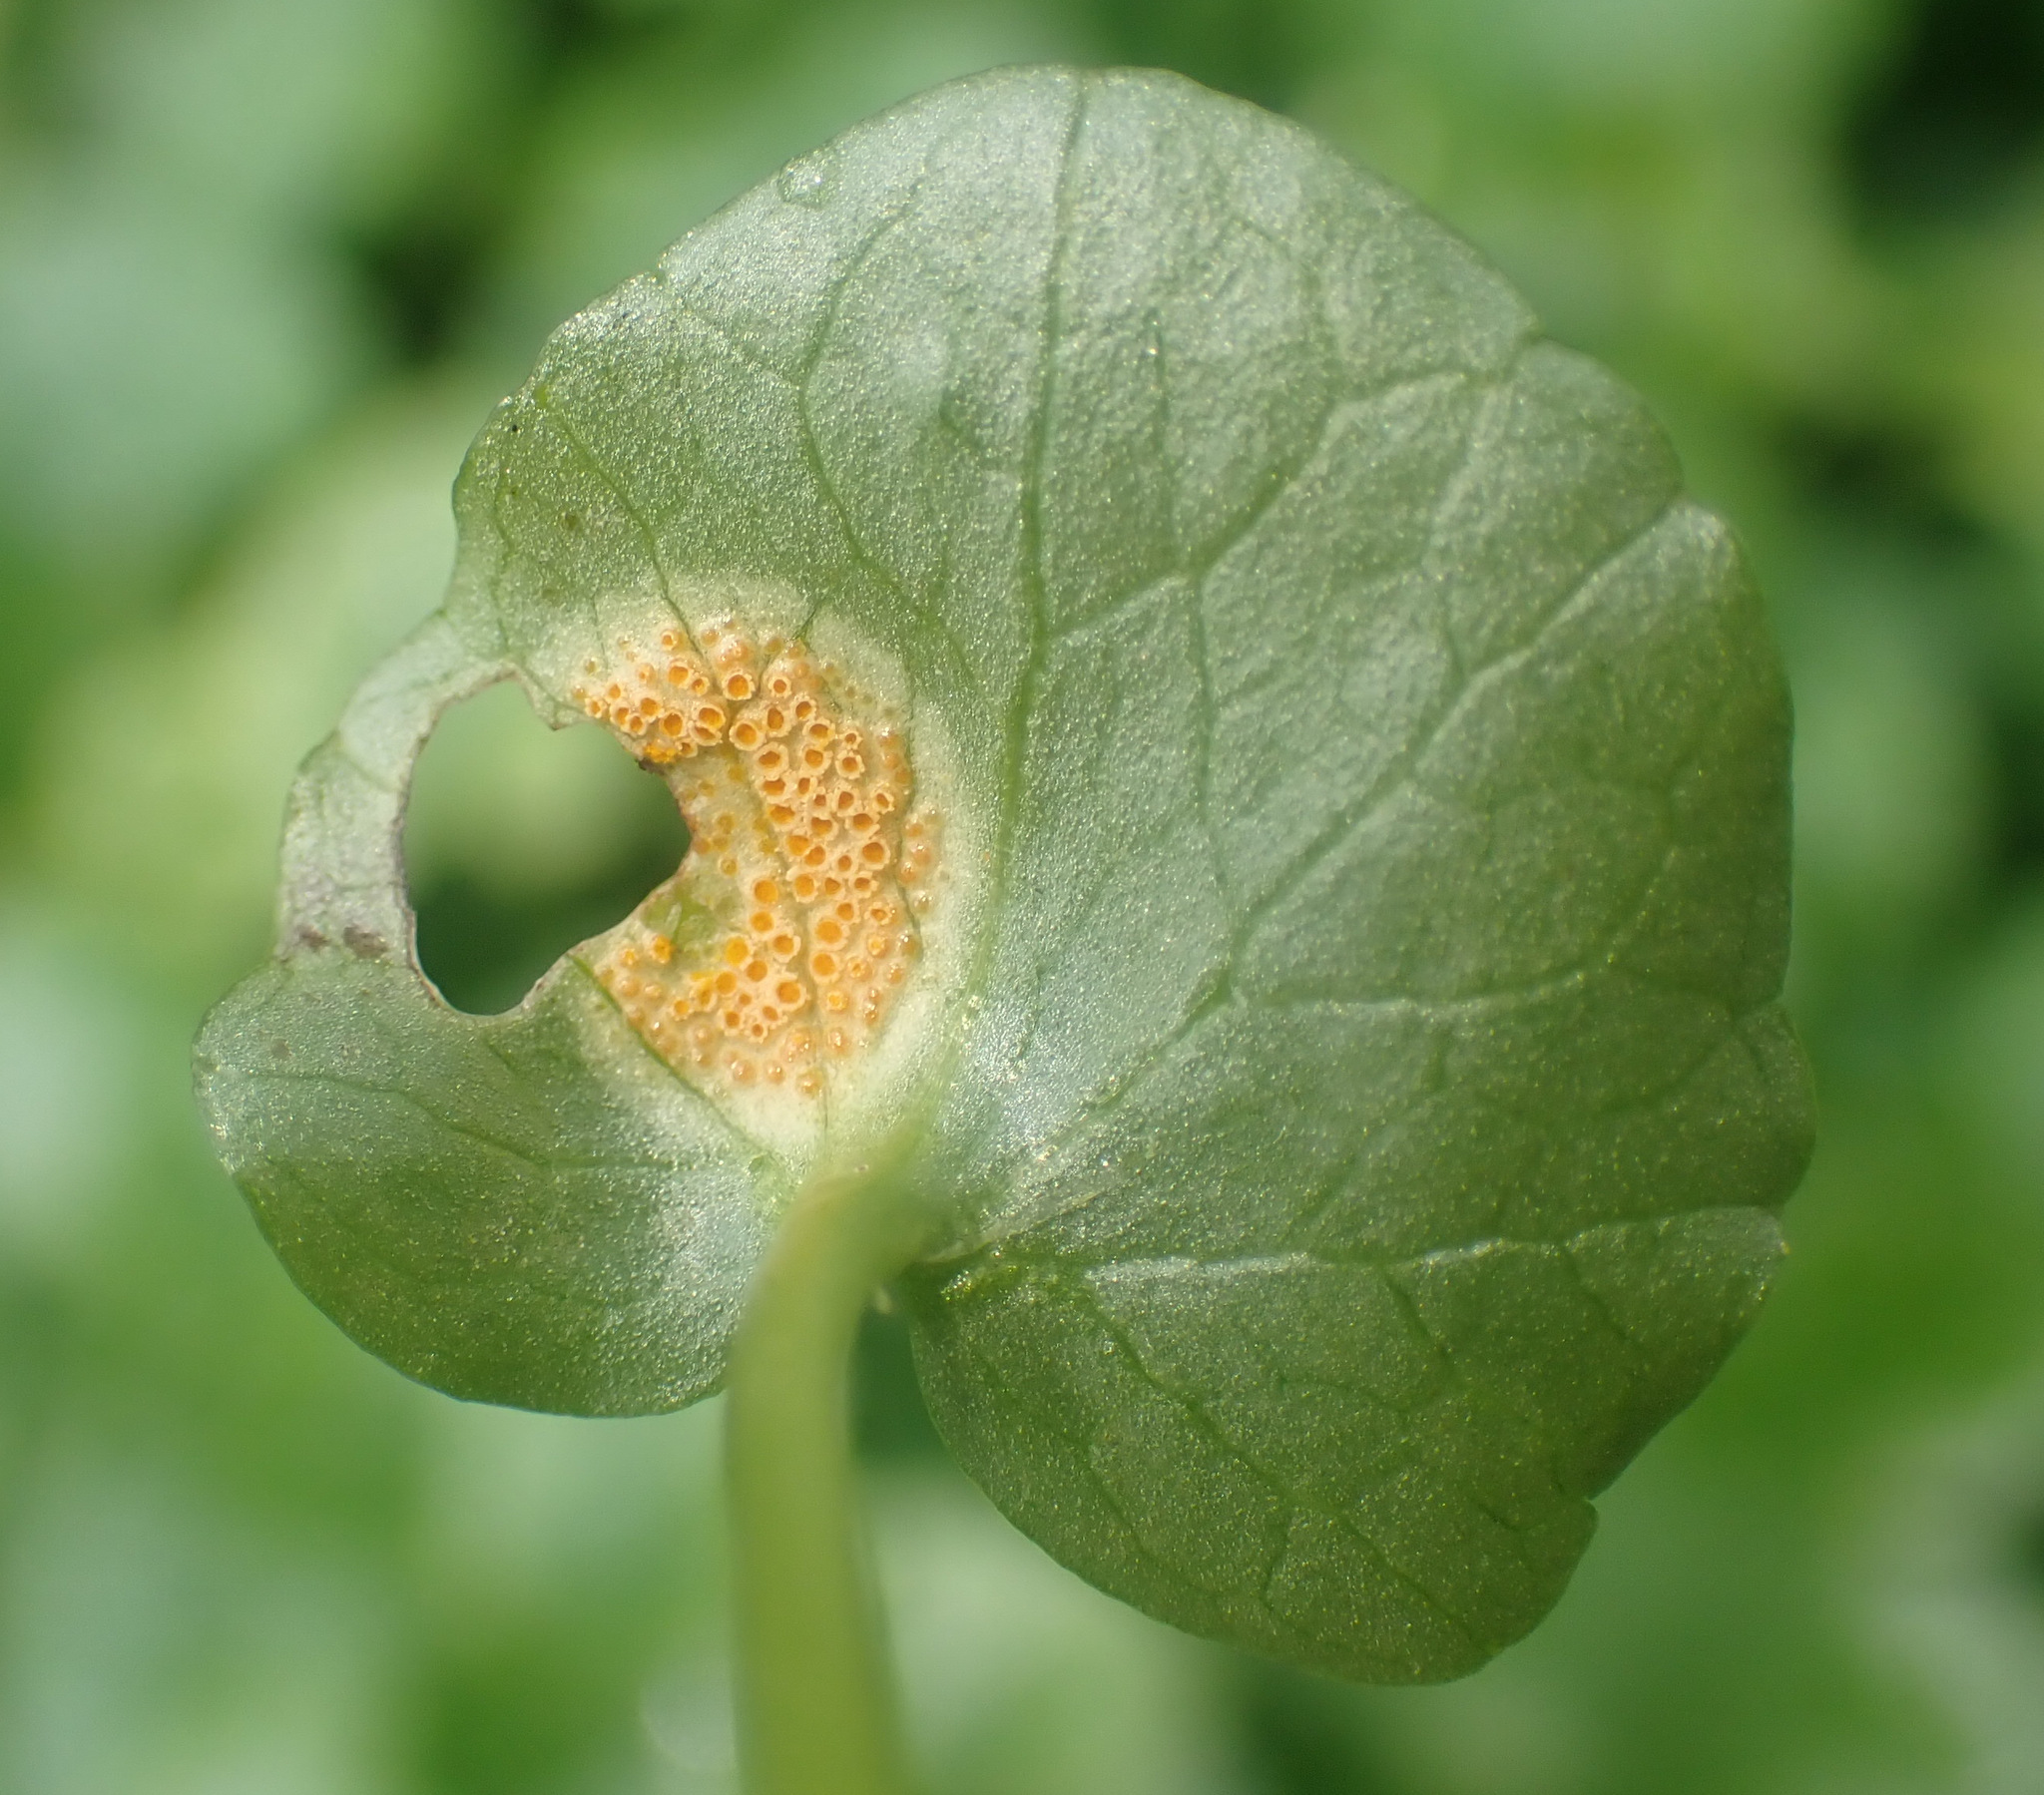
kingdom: Fungi
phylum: Basidiomycota
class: Pucciniomycetes
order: Pucciniales
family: Pucciniaceae
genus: Uromyces
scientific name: Uromyces
